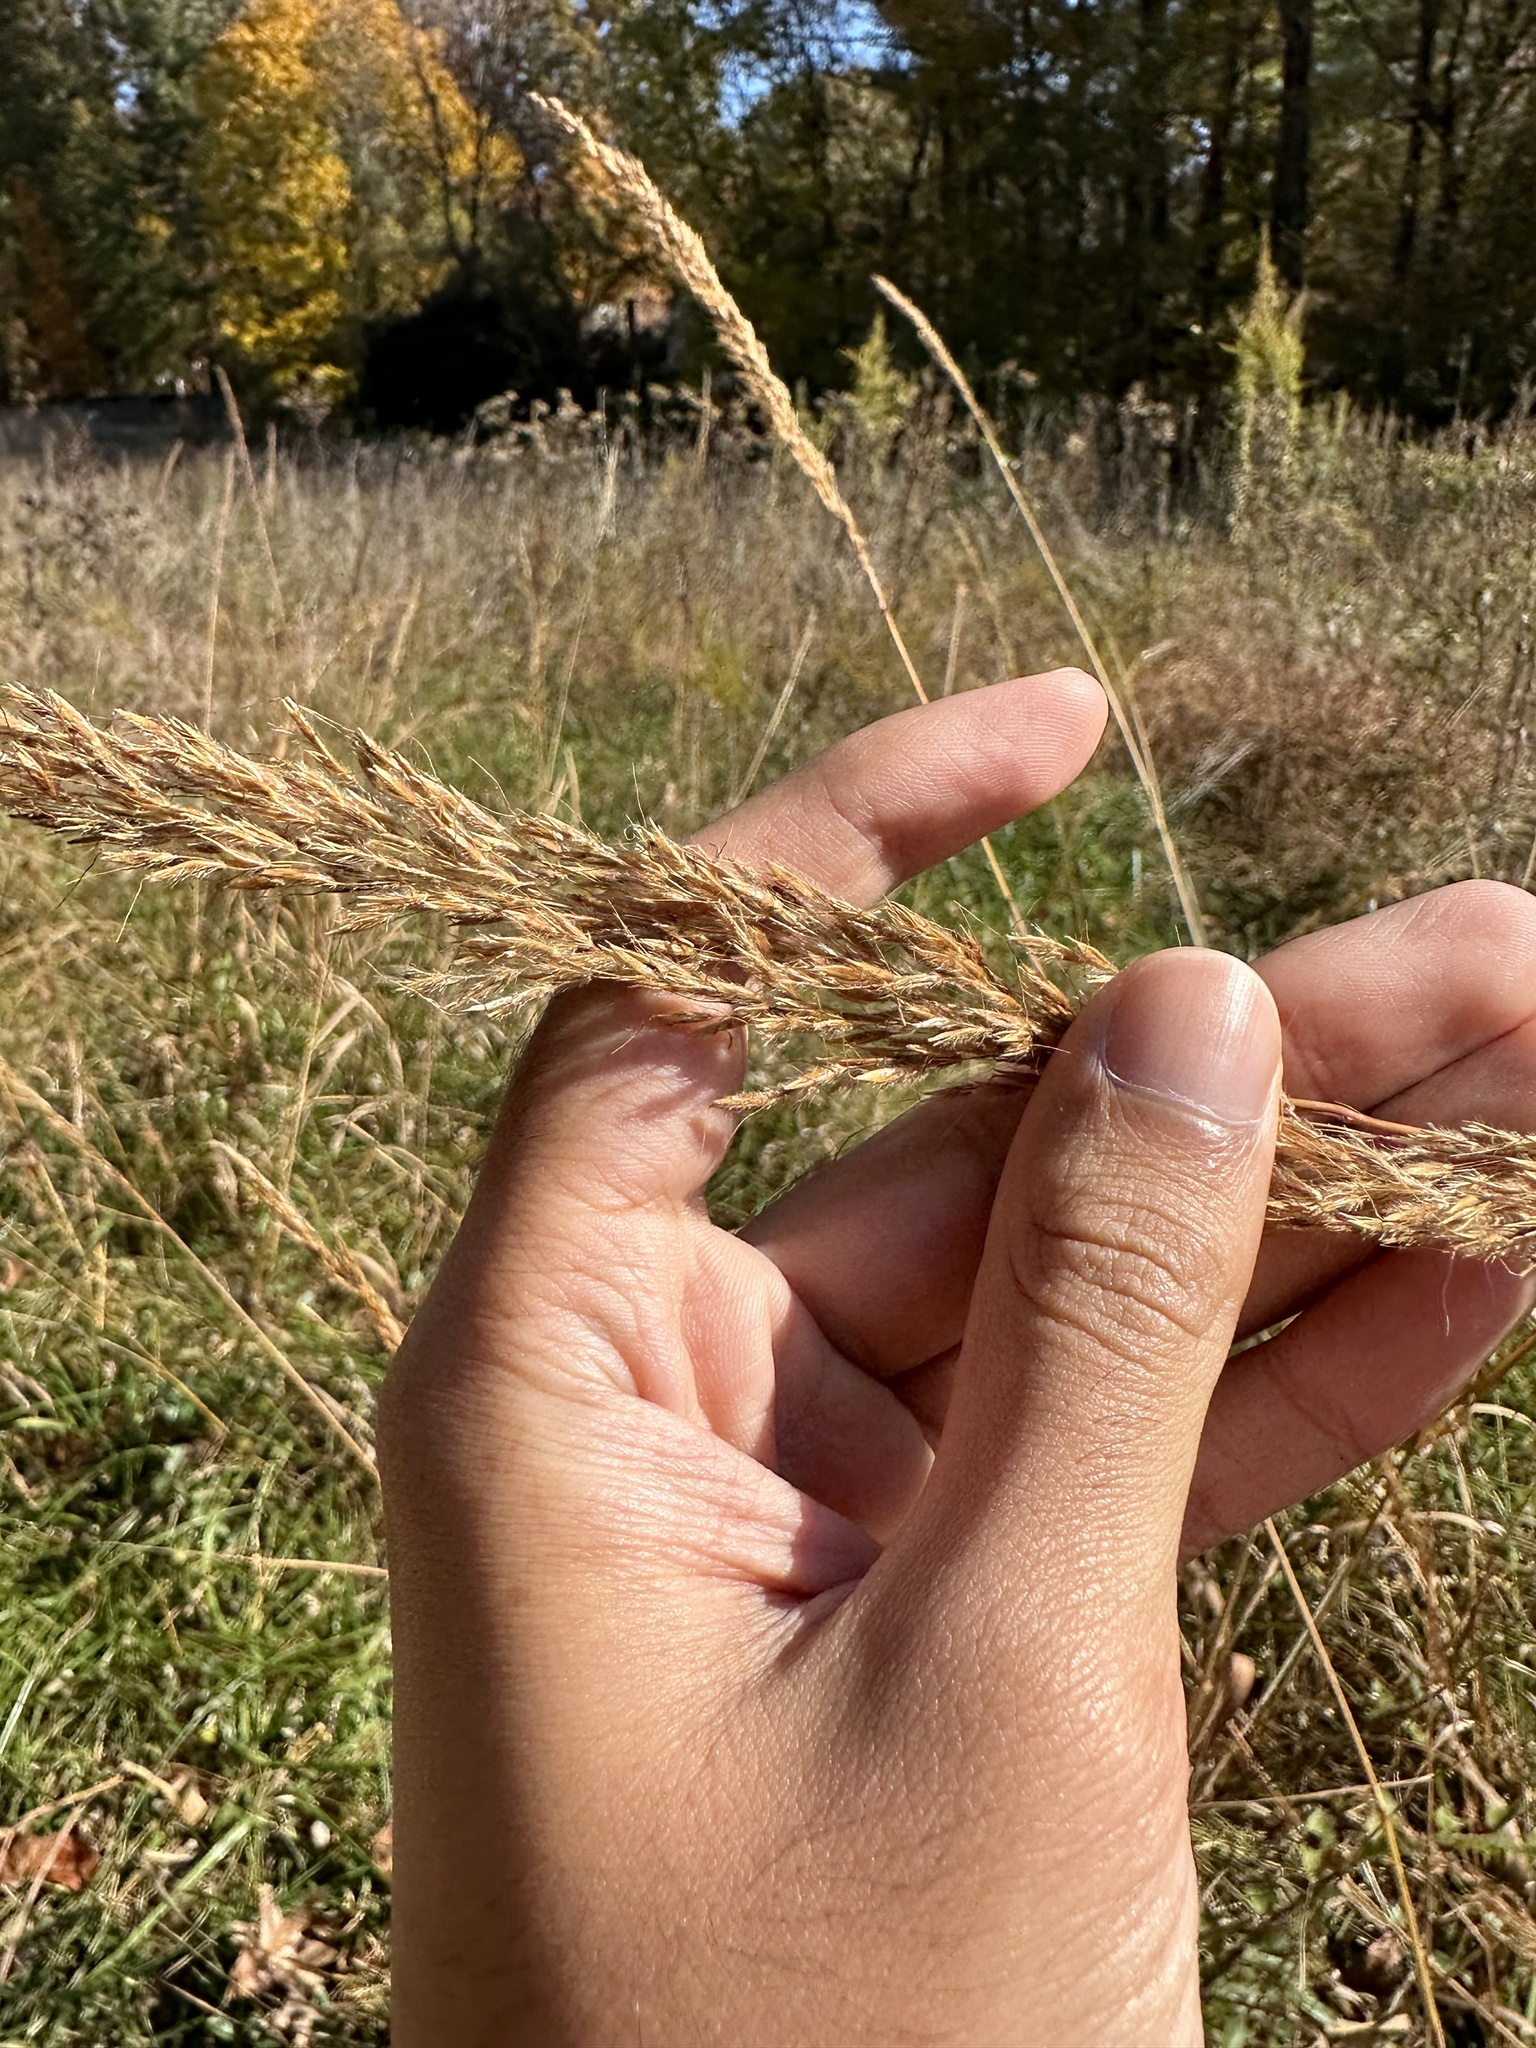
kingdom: Plantae
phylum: Tracheophyta
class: Liliopsida
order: Poales
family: Poaceae
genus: Sorghastrum
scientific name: Sorghastrum nutans
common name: Indian grass
